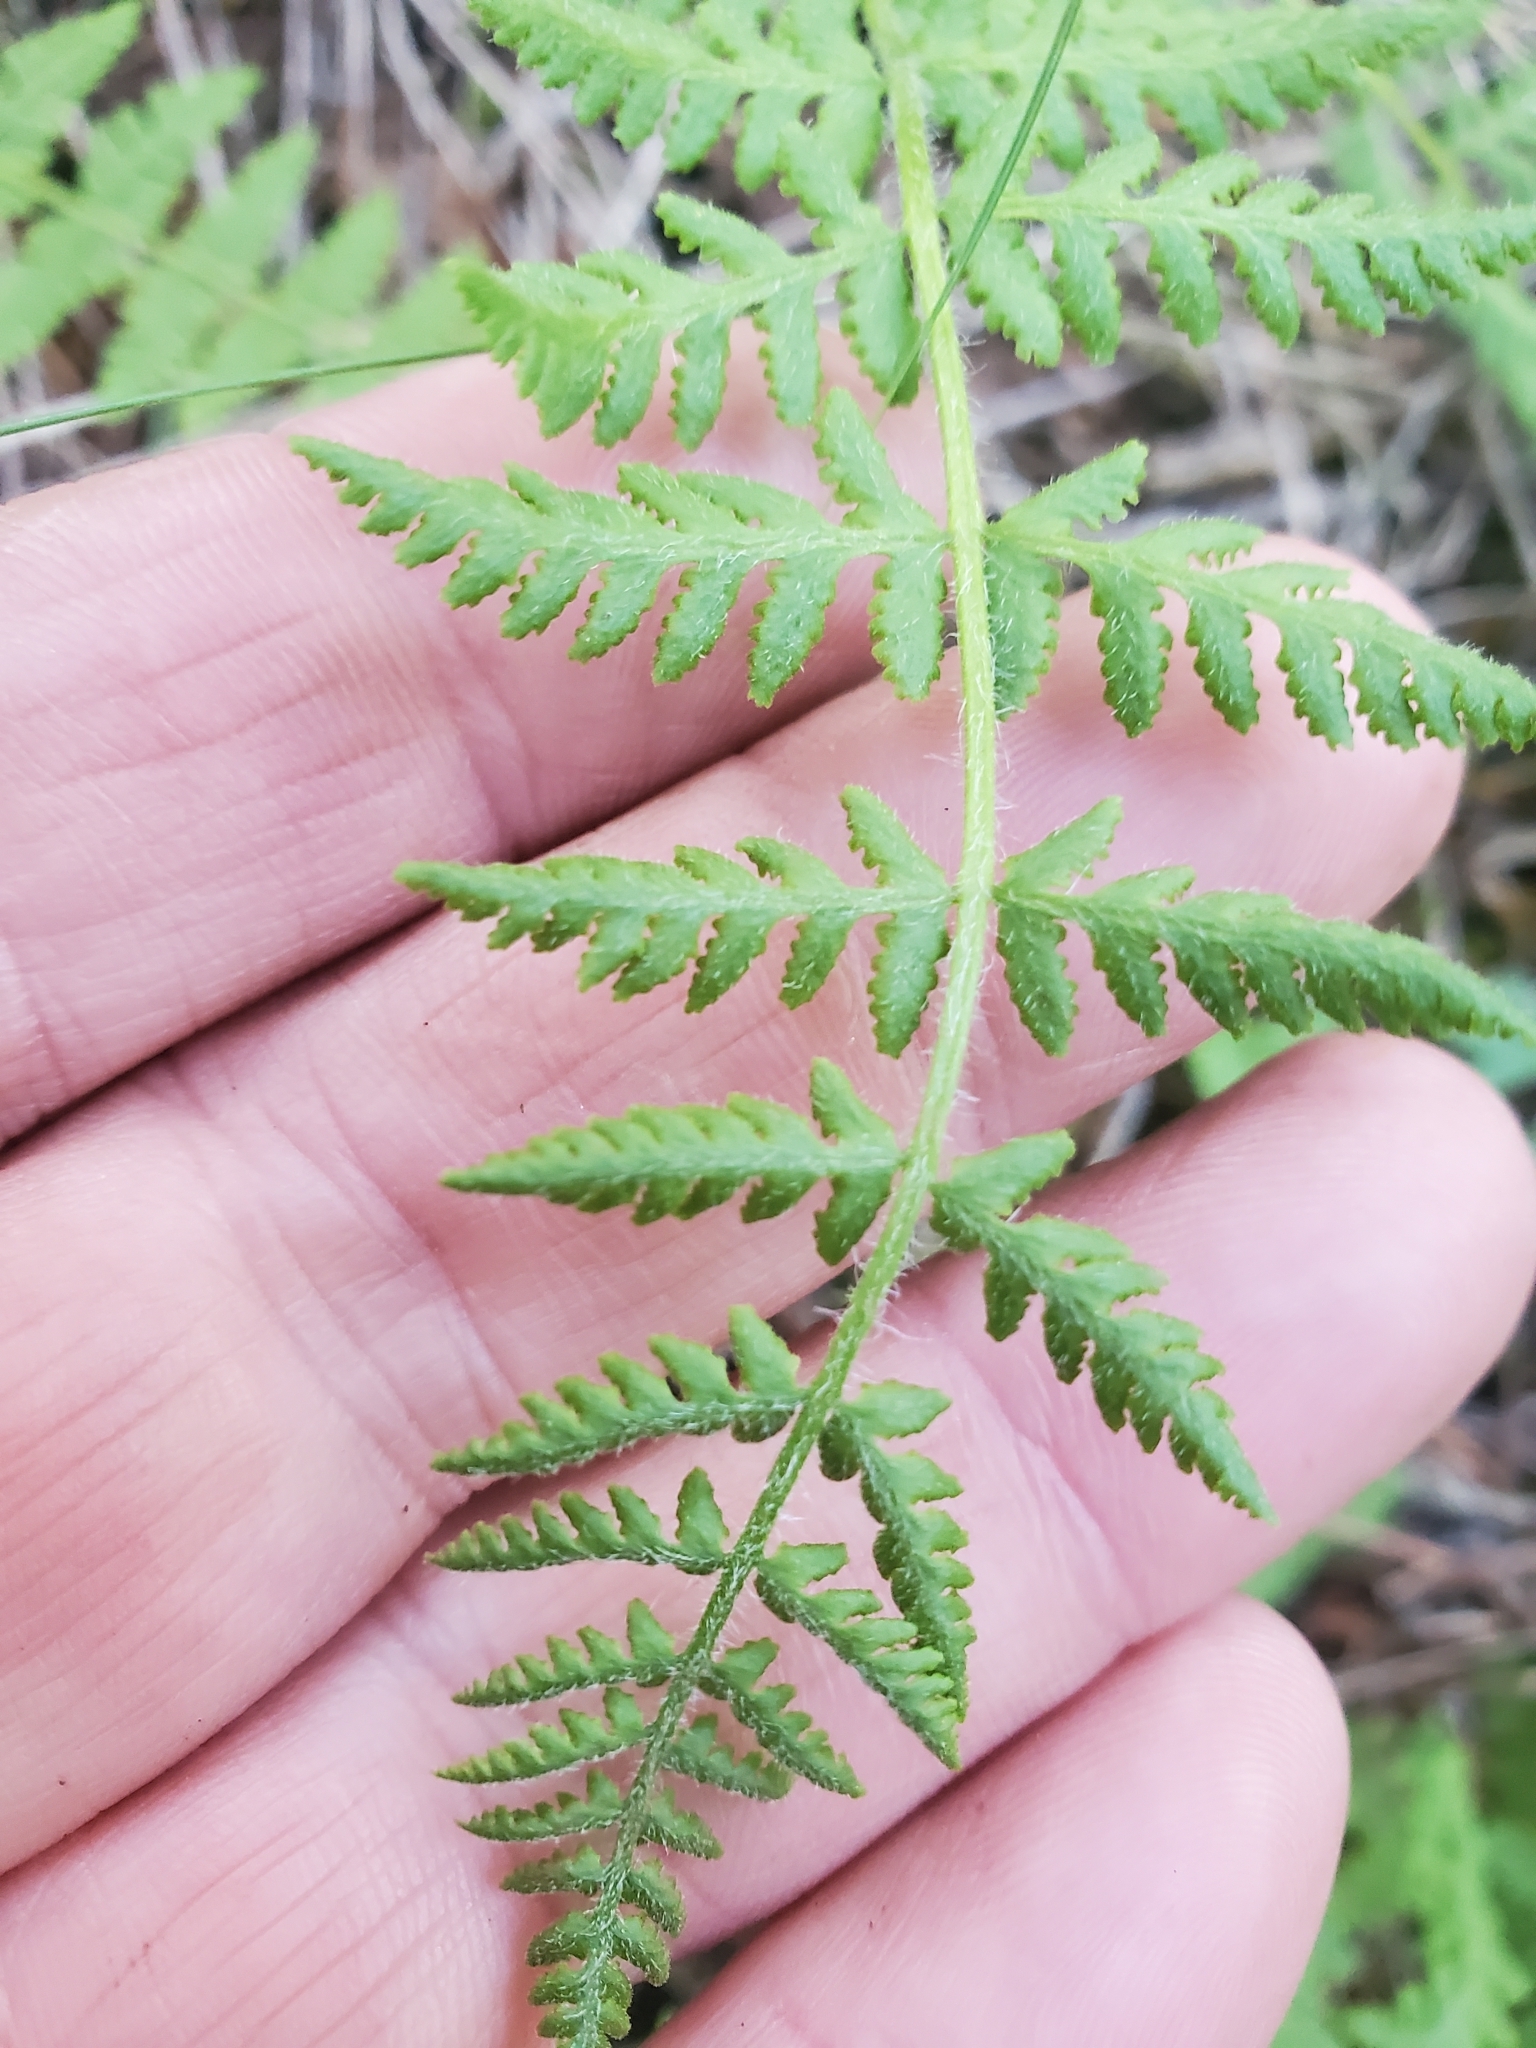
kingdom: Plantae
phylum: Tracheophyta
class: Polypodiopsida
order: Polypodiales
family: Woodsiaceae
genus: Physematium
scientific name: Physematium scopulinum
